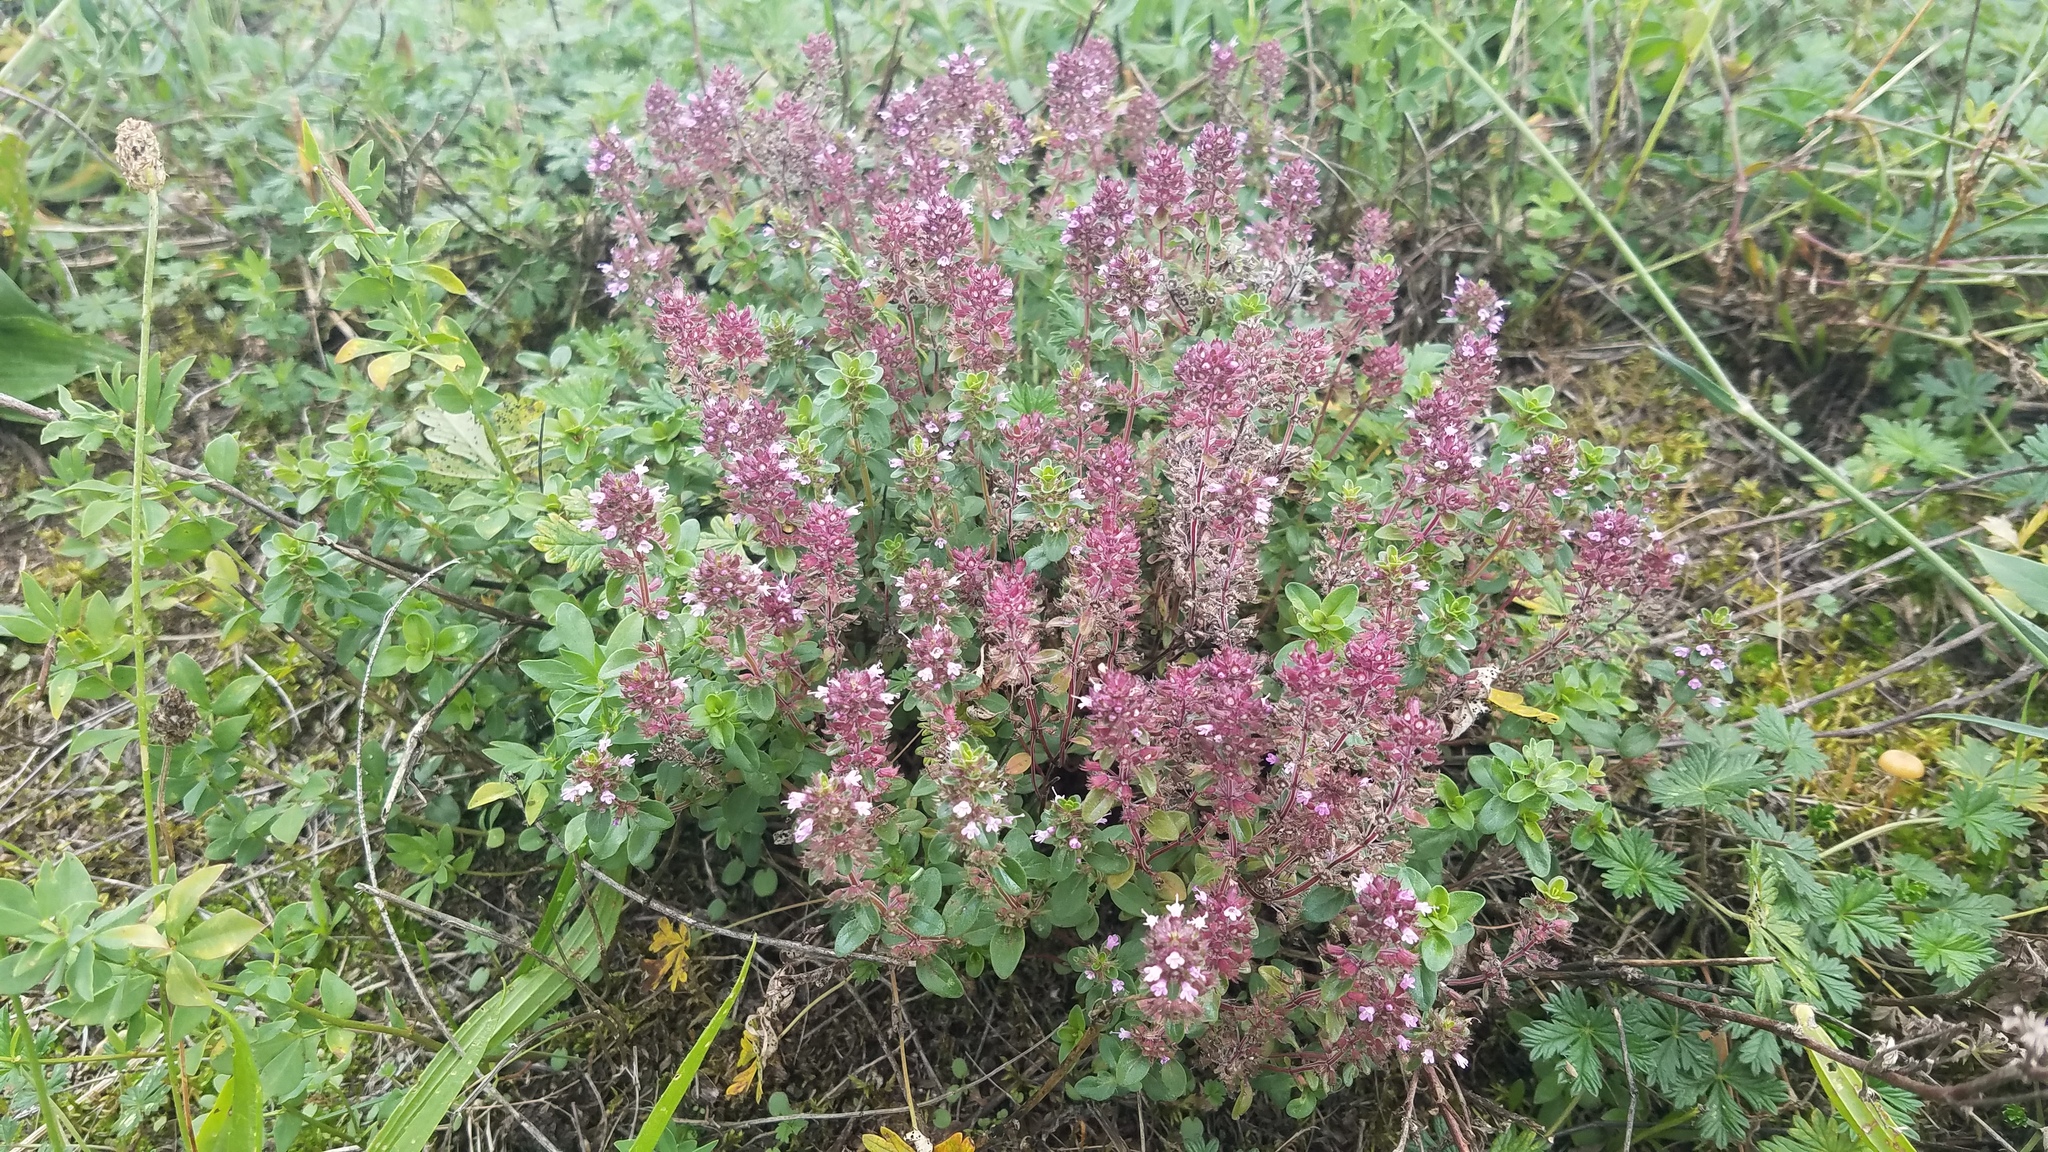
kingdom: Plantae
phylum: Tracheophyta
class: Magnoliopsida
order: Lamiales
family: Lamiaceae
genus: Thymus
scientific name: Thymus pulegioides
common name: Large thyme
